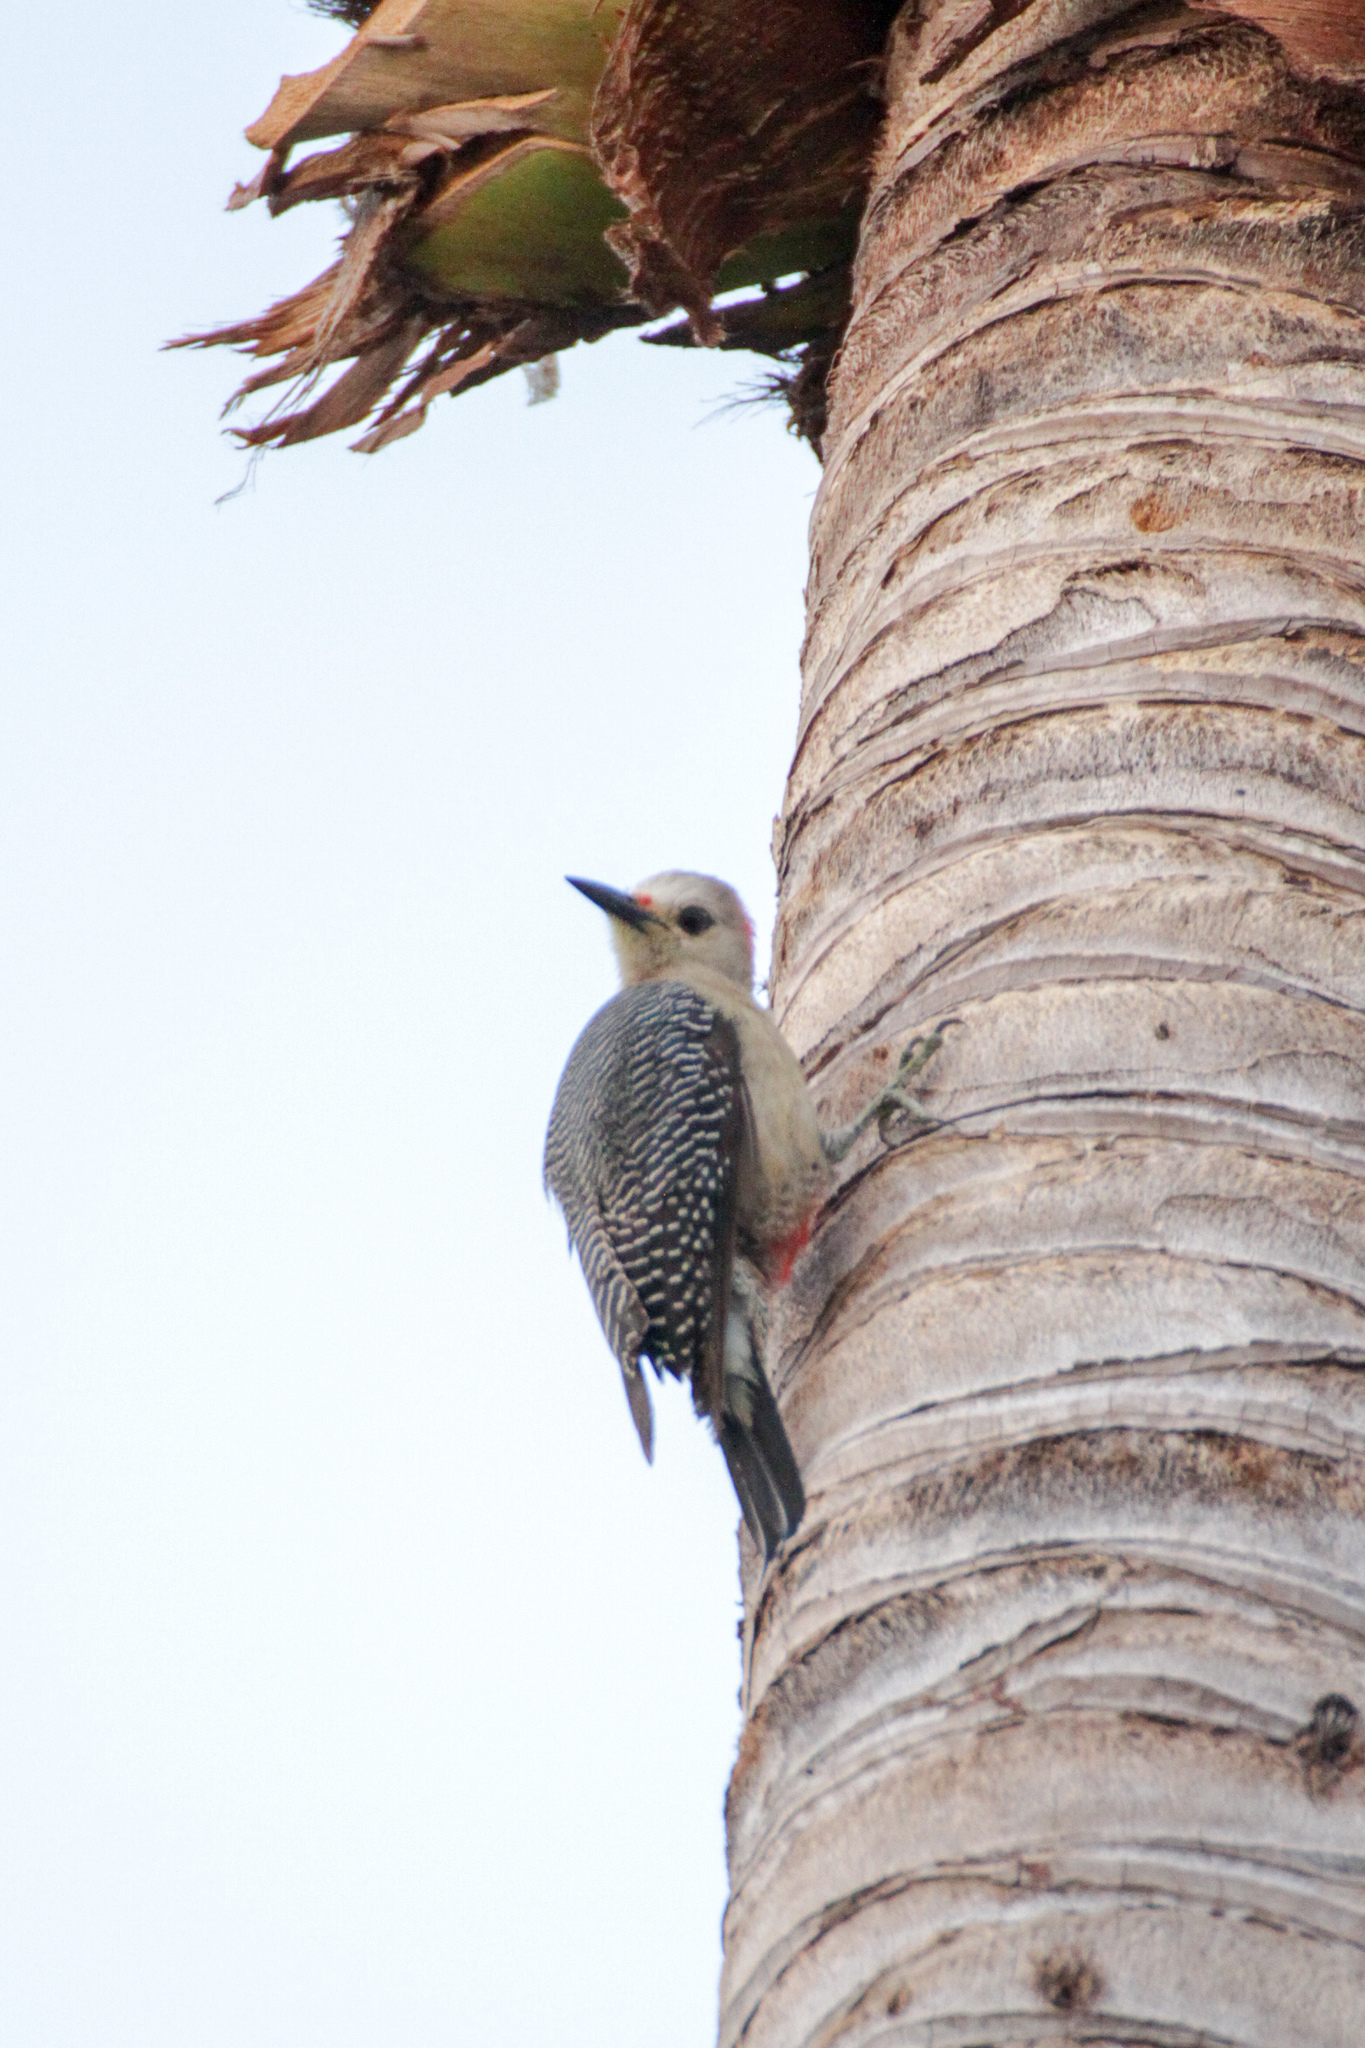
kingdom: Animalia
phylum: Chordata
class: Aves
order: Piciformes
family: Picidae
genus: Melanerpes
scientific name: Melanerpes aurifrons
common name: Golden-fronted woodpecker
